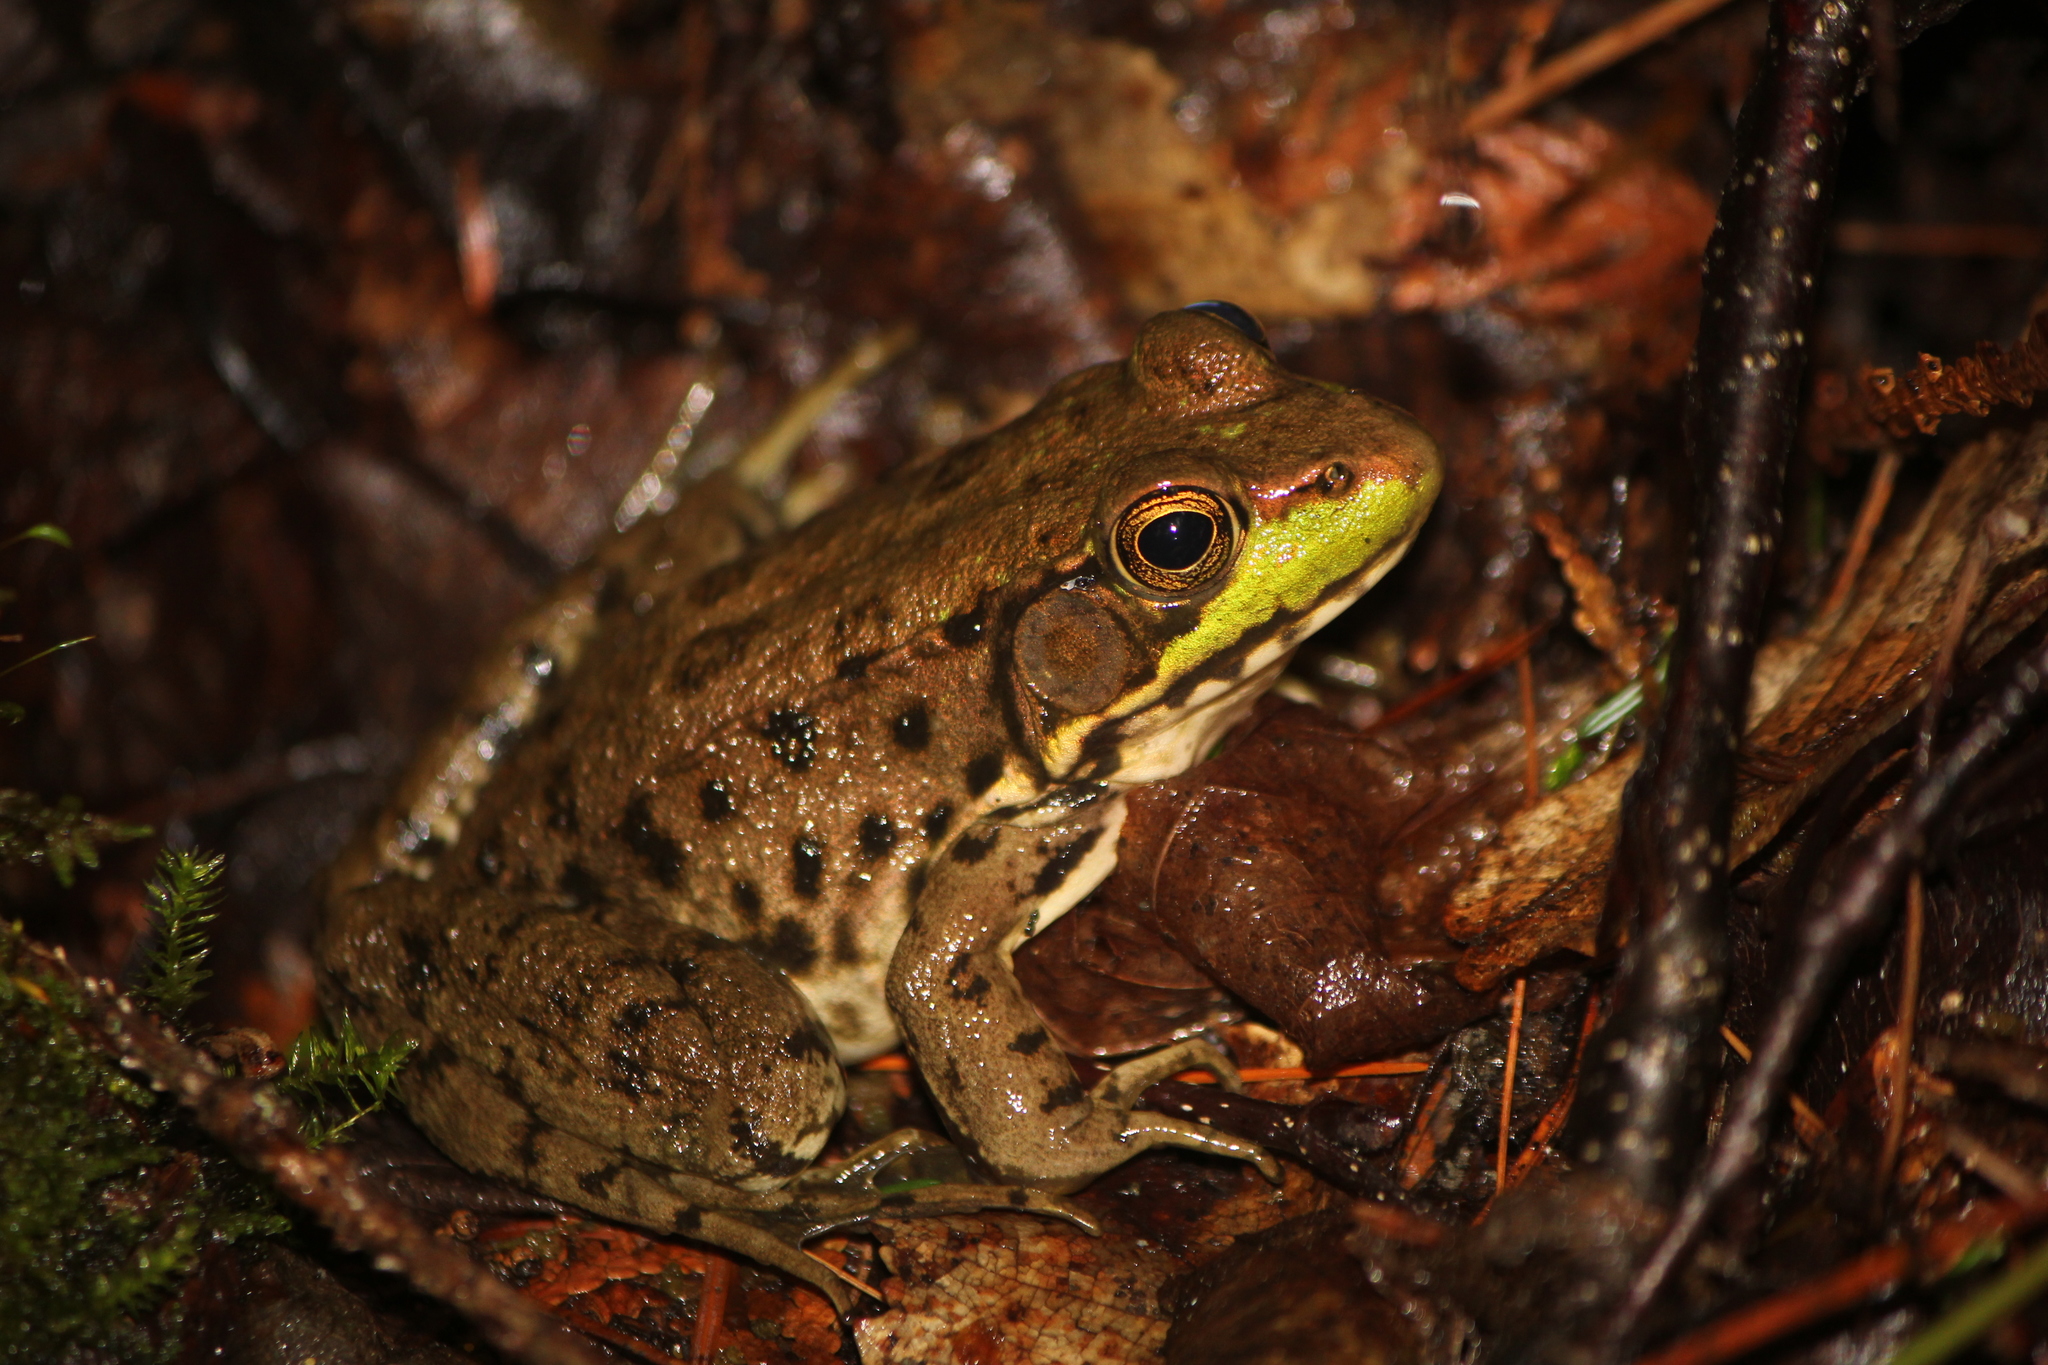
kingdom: Animalia
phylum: Chordata
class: Amphibia
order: Anura
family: Ranidae
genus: Lithobates
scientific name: Lithobates clamitans
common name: Green frog
